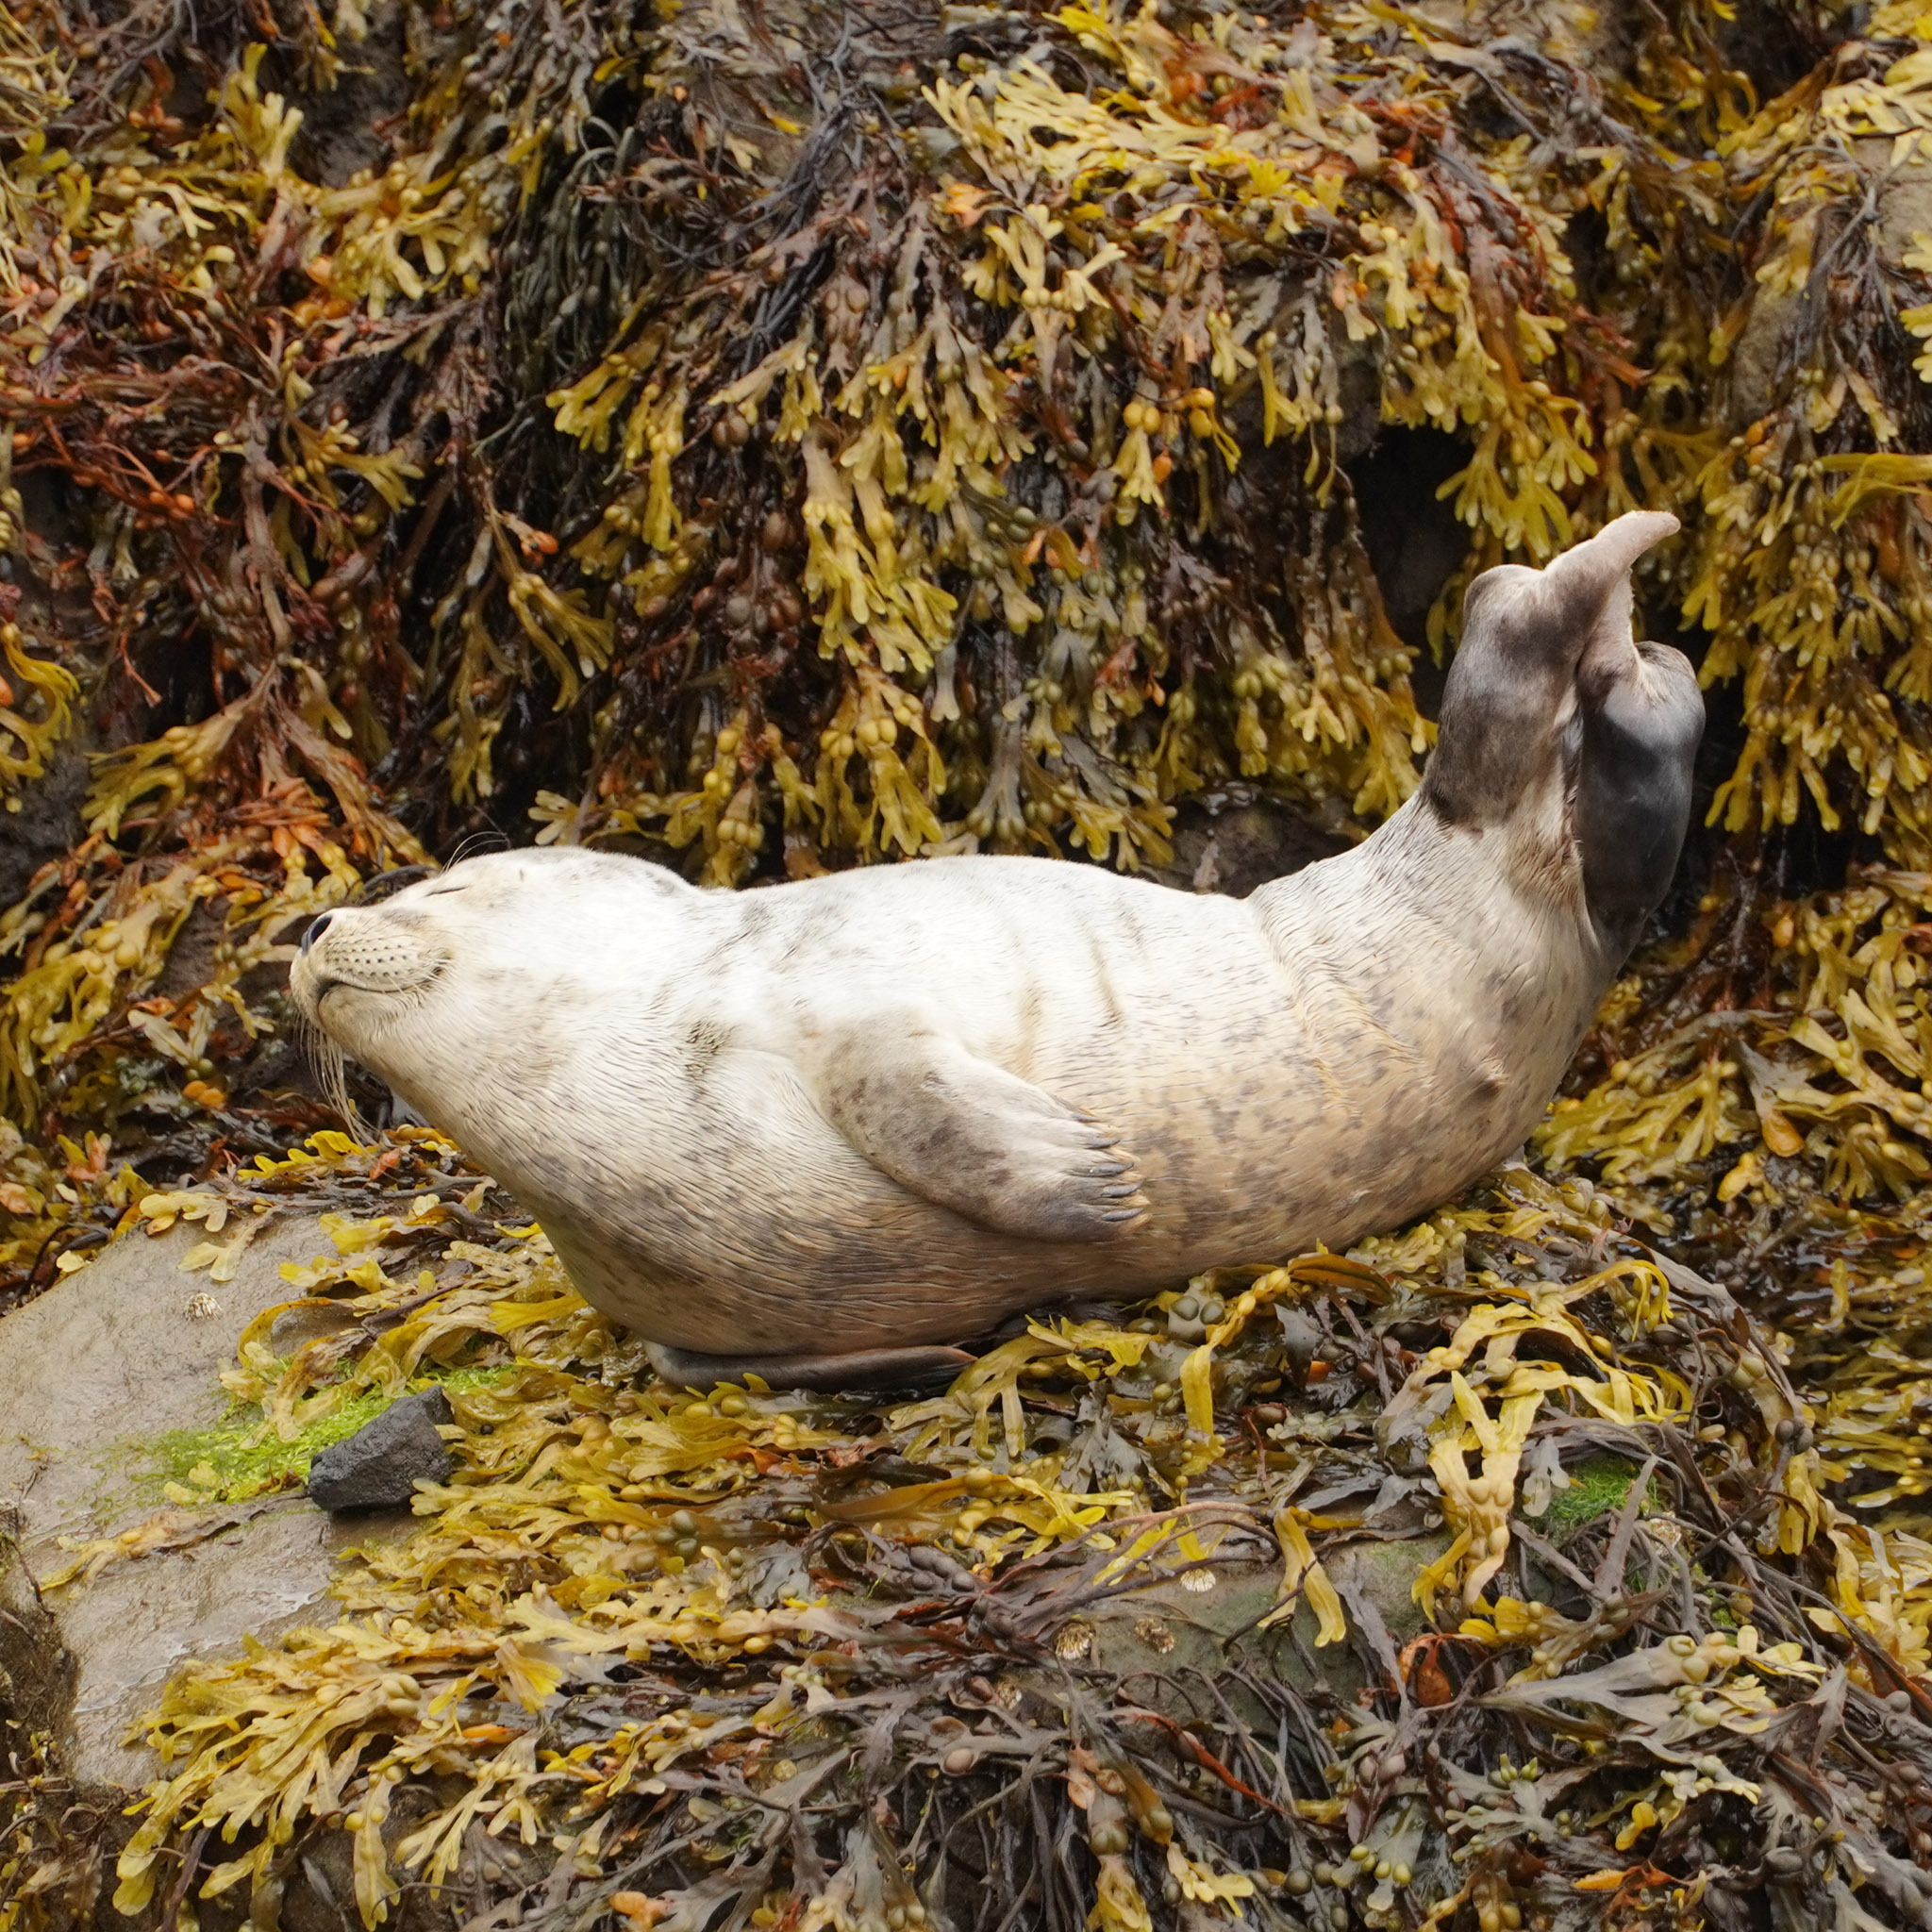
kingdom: Animalia
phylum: Chordata
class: Mammalia
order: Carnivora
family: Phocidae
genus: Phoca
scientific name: Phoca vitulina
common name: Harbor seal
